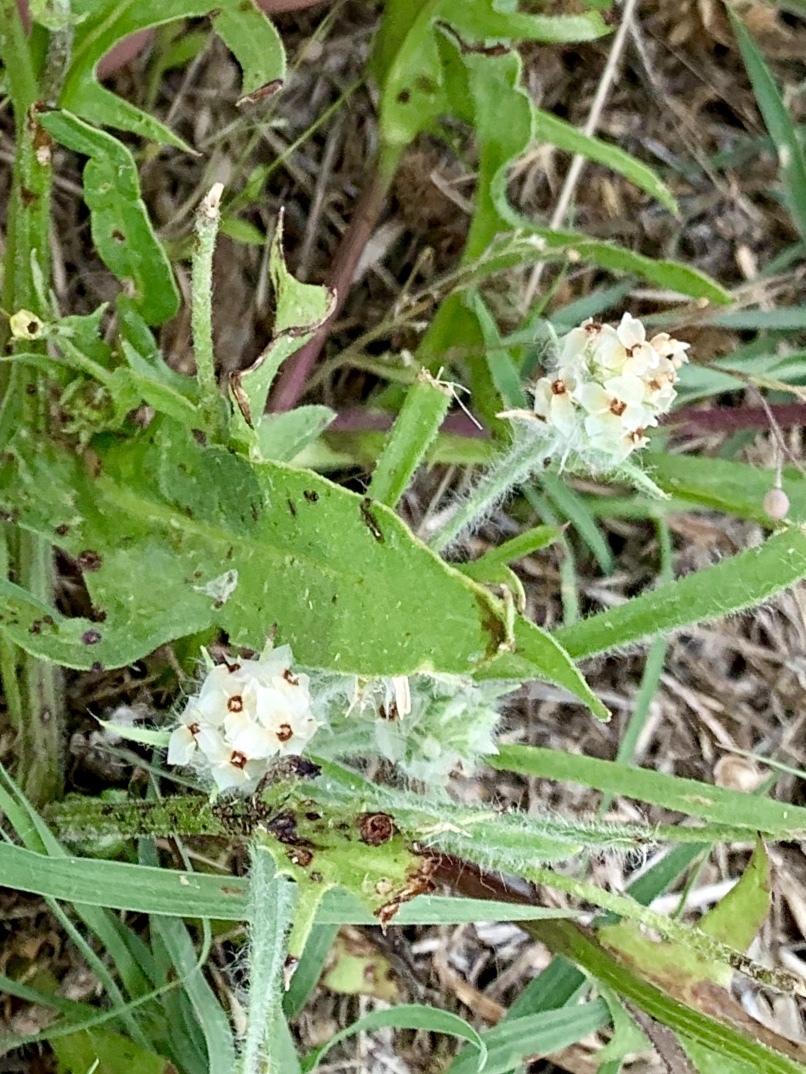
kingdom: Plantae
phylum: Tracheophyta
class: Magnoliopsida
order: Lamiales
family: Plantaginaceae
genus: Plantago
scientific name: Plantago helleri
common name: Heller's plantain
